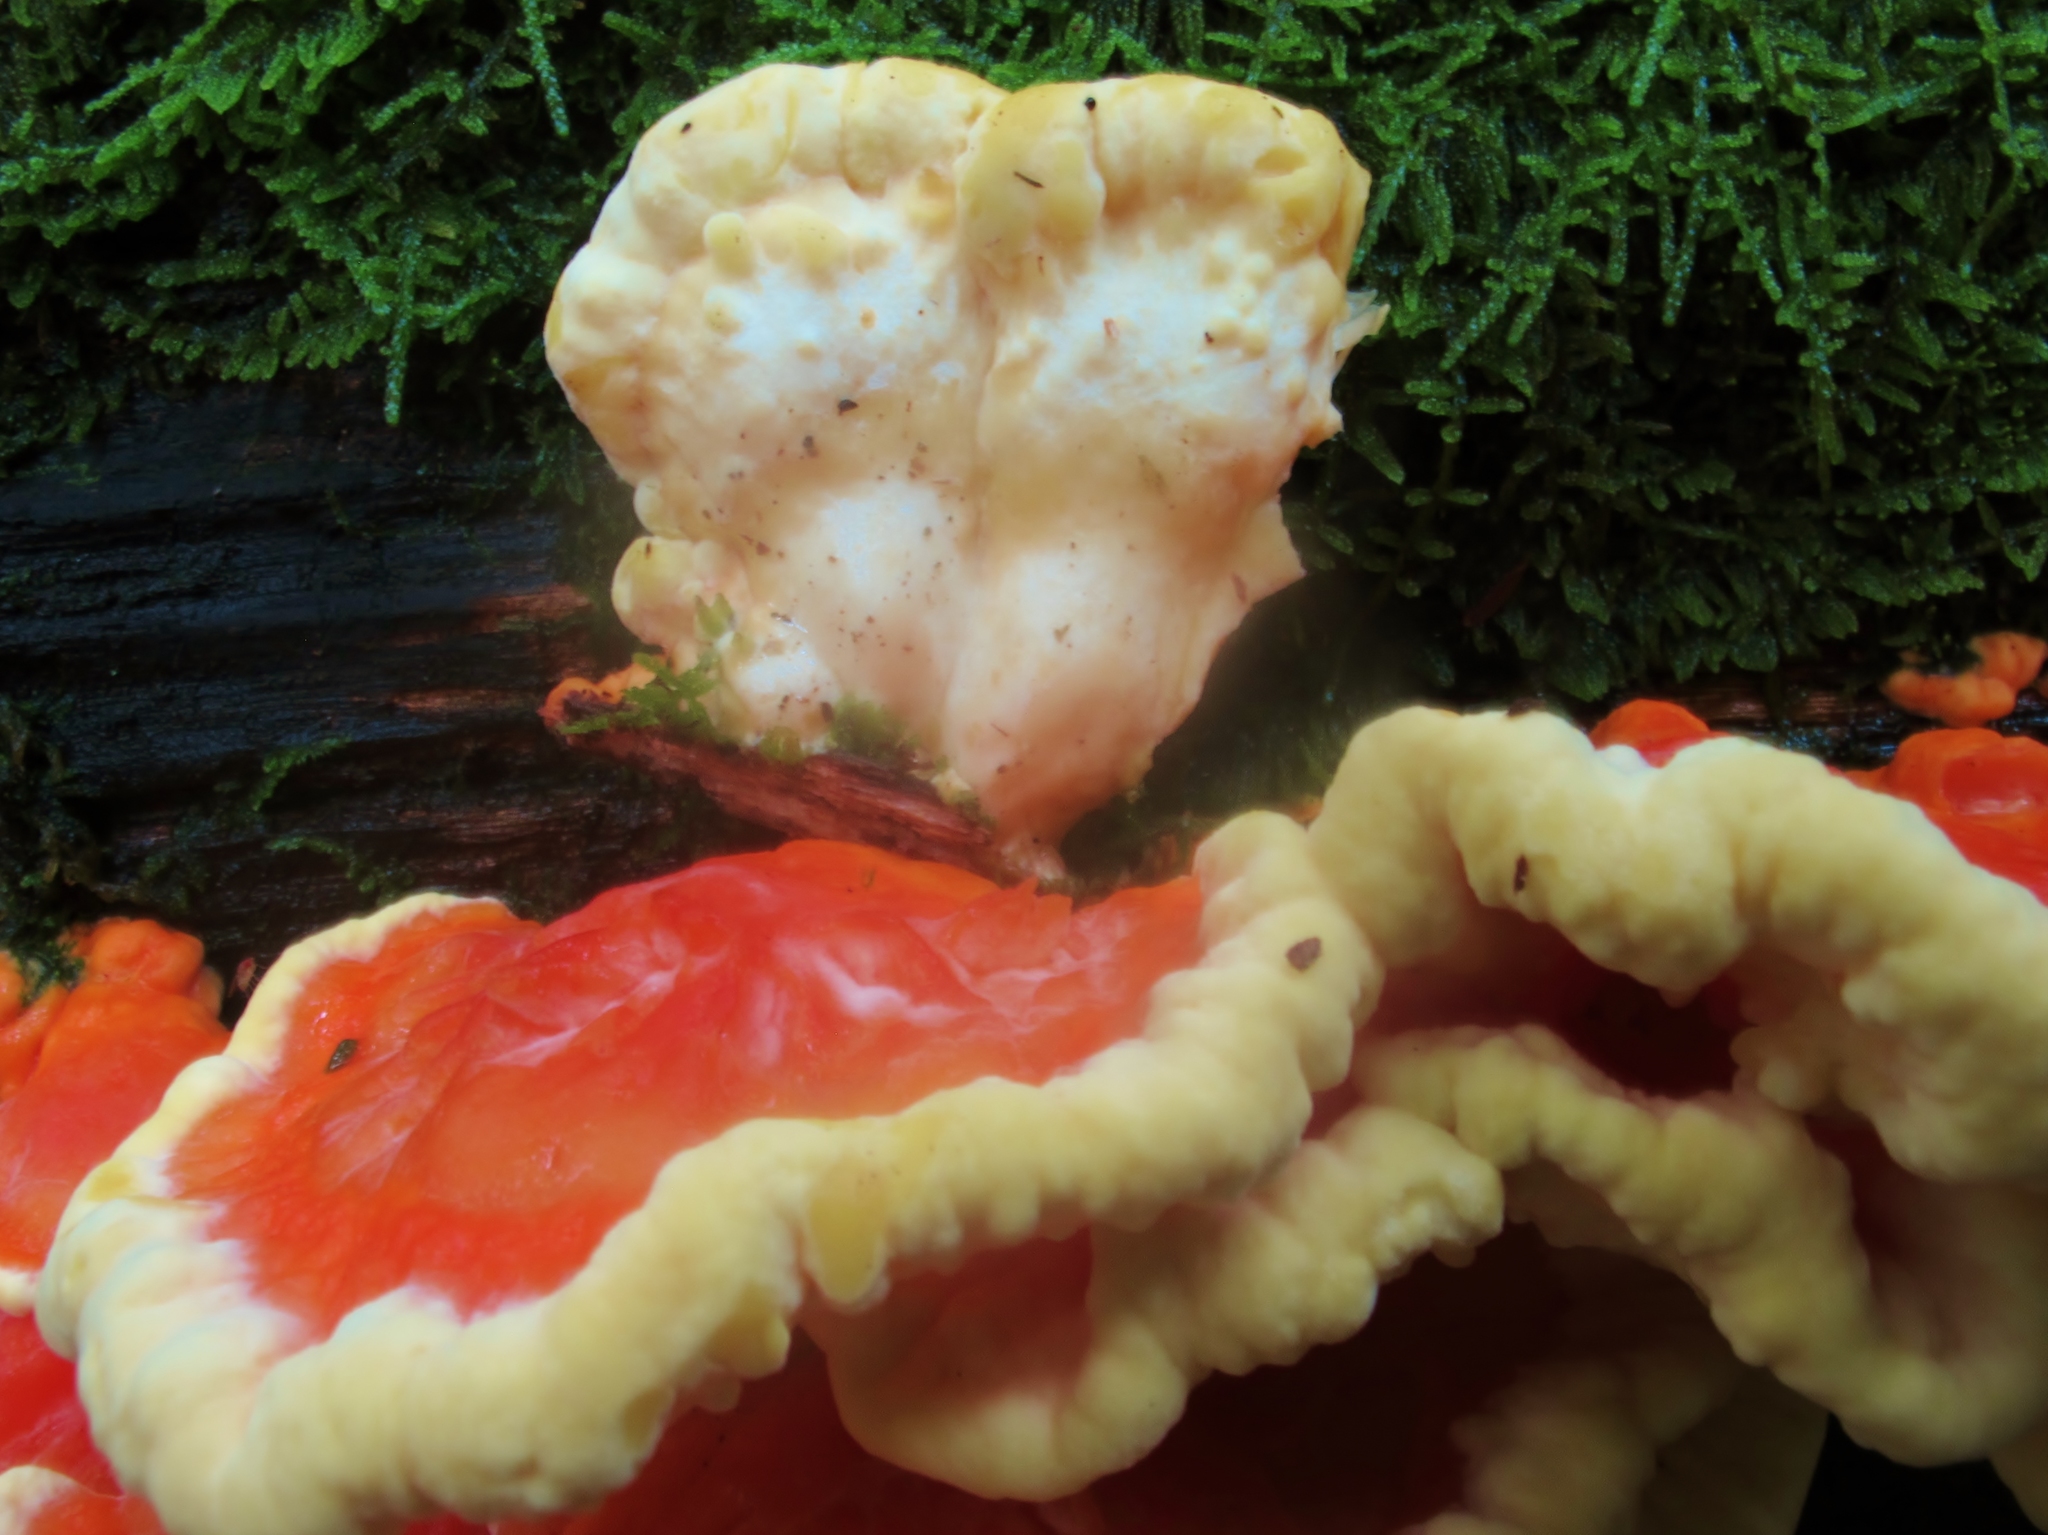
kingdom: Fungi
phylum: Basidiomycota
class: Agaricomycetes
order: Polyporales
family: Laetiporaceae
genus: Laetiporus
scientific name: Laetiporus sulphureus
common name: Chicken of the woods
